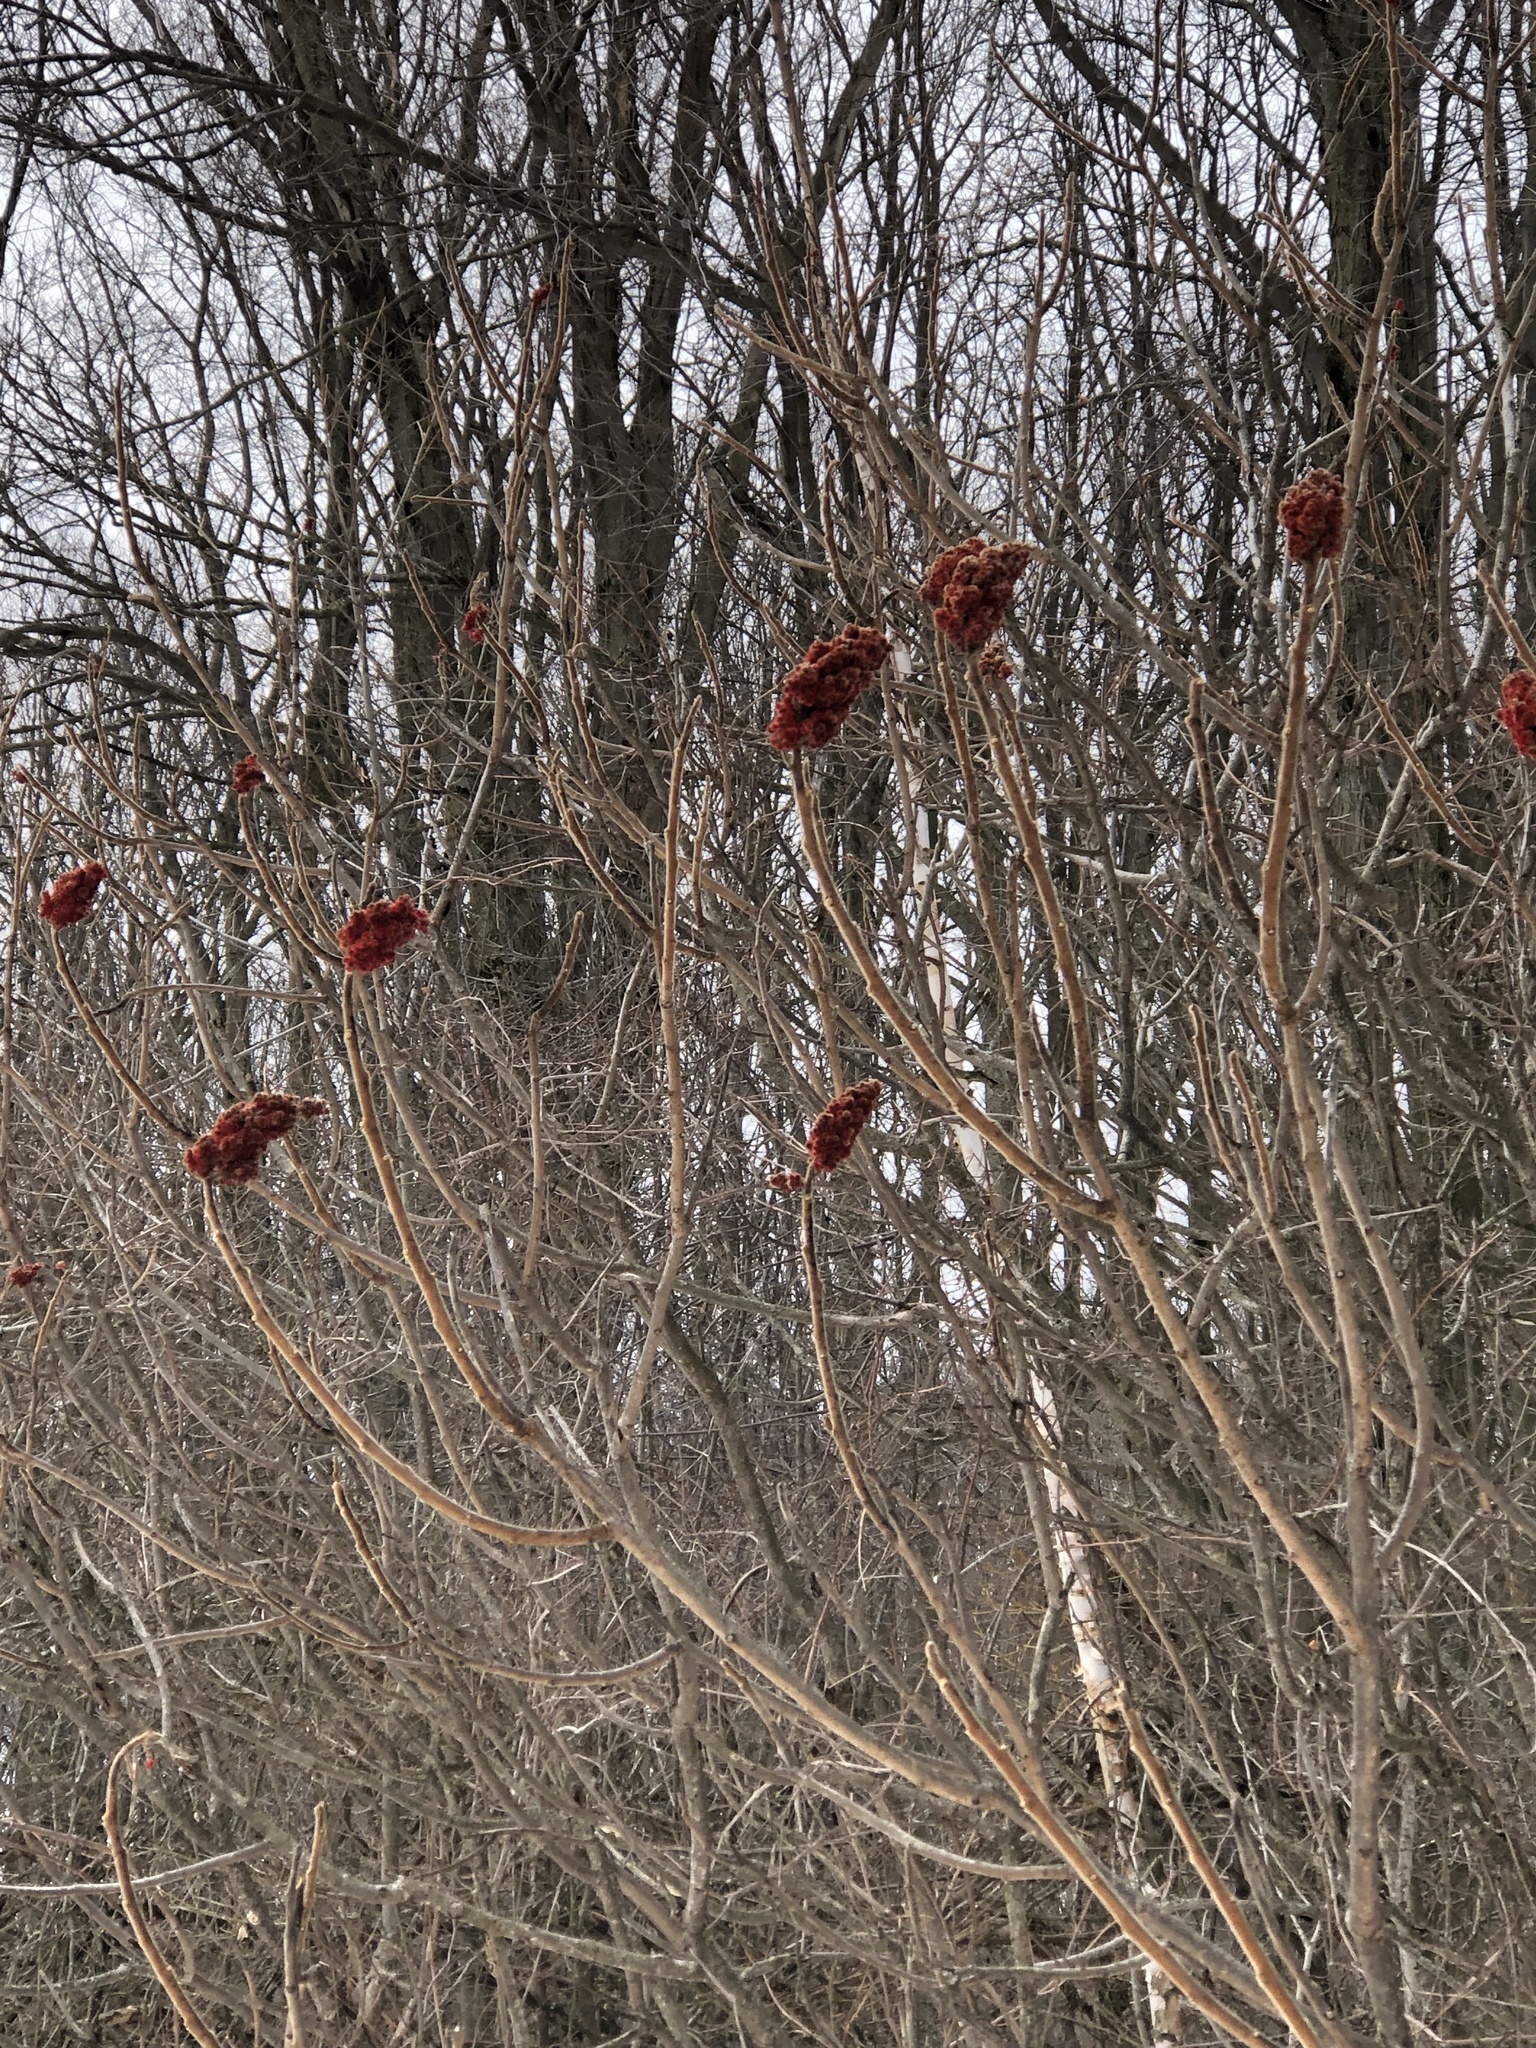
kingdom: Plantae
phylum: Tracheophyta
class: Magnoliopsida
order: Sapindales
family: Anacardiaceae
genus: Rhus
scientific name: Rhus typhina
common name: Staghorn sumac
